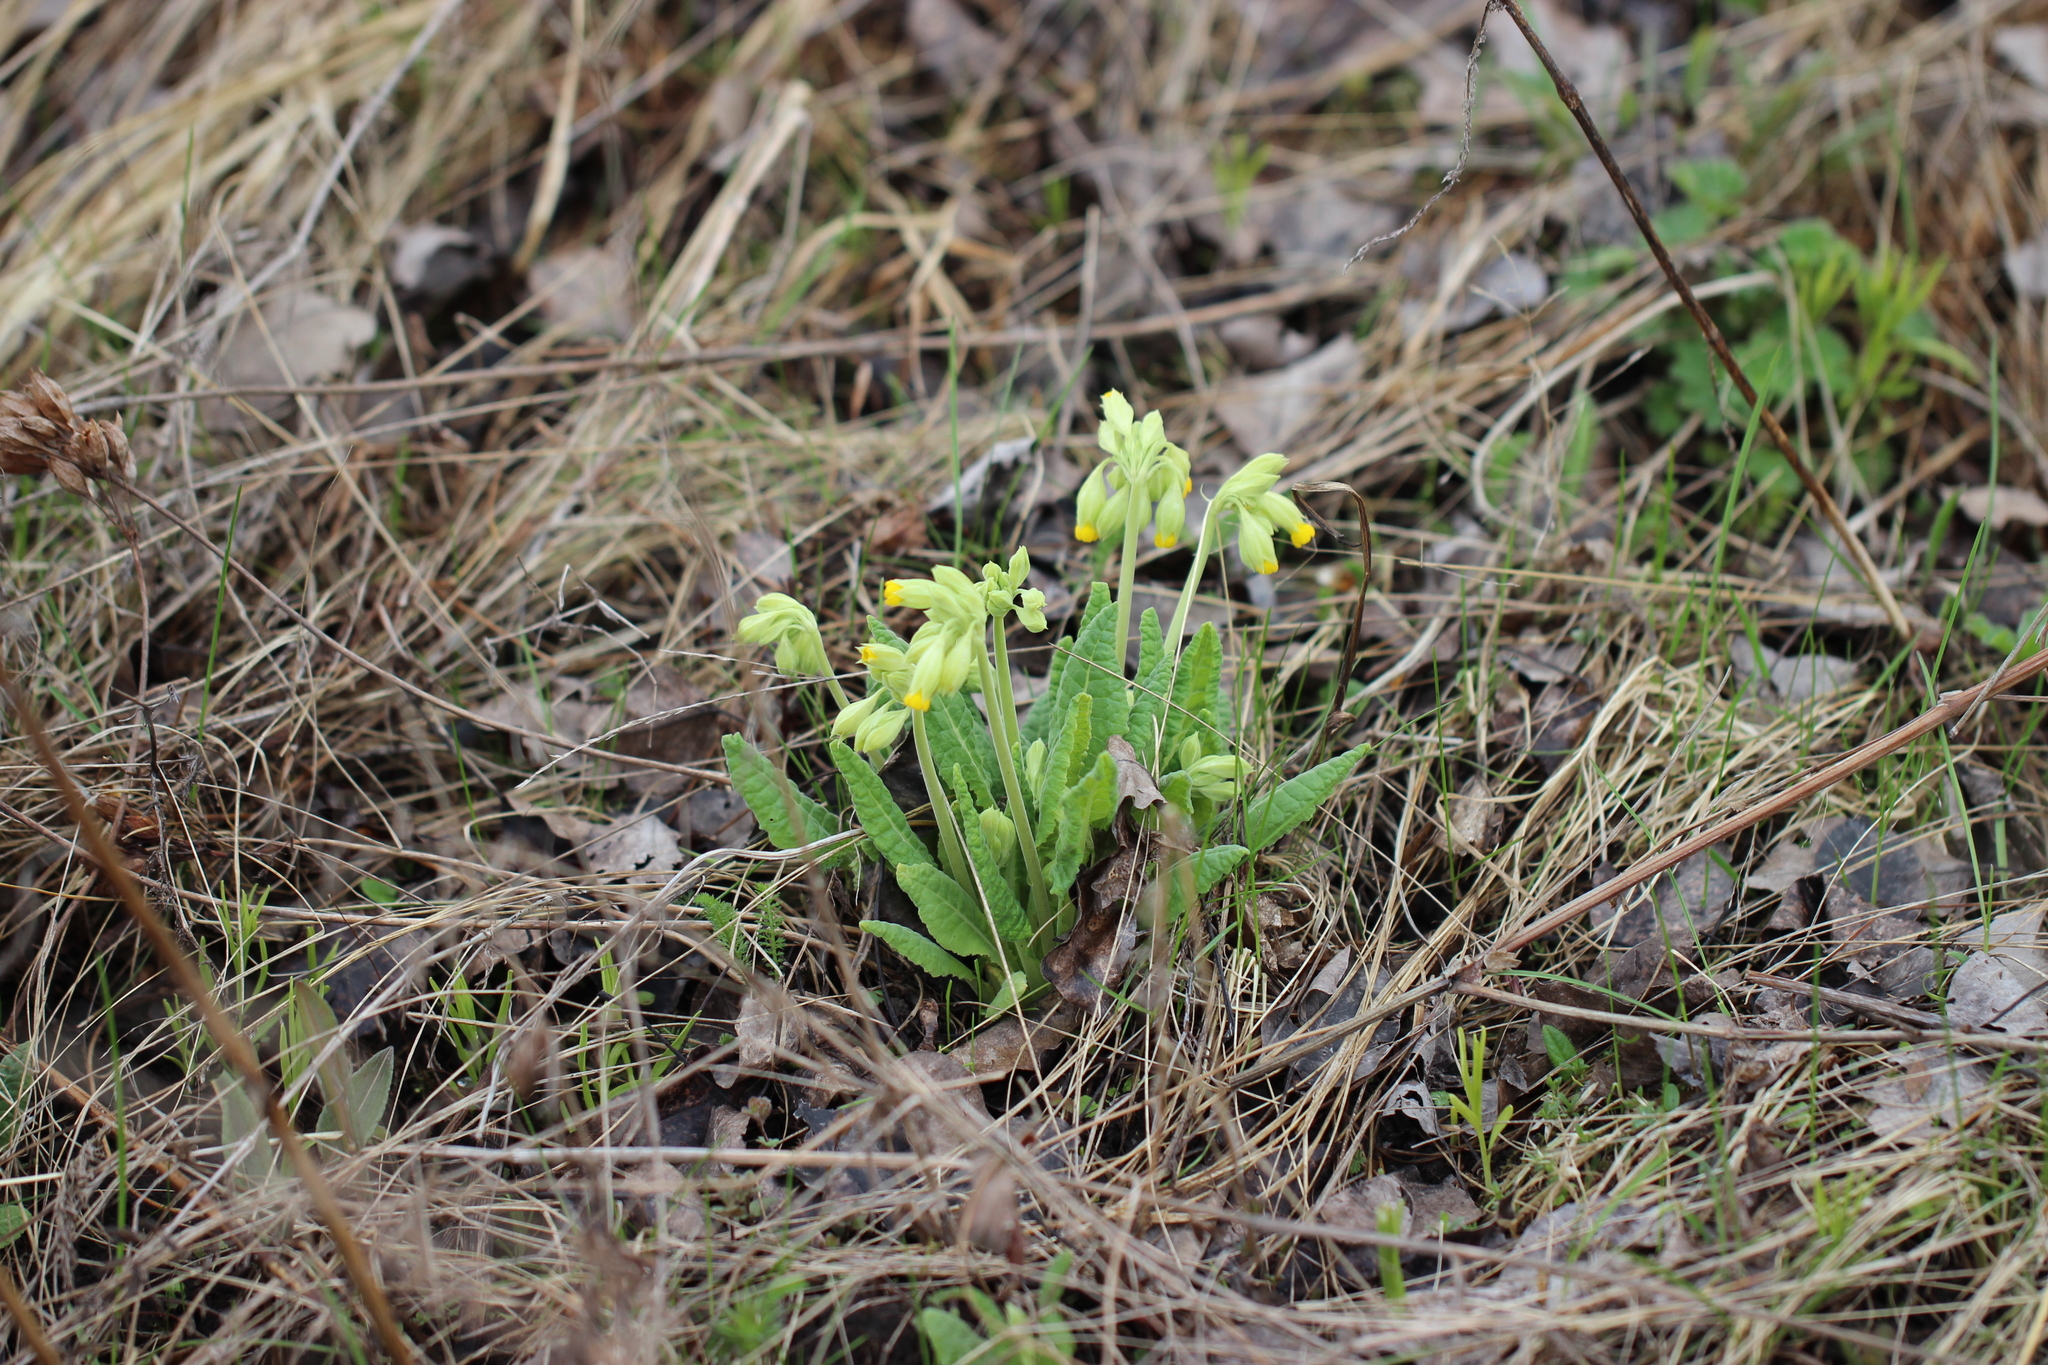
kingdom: Plantae
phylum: Tracheophyta
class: Magnoliopsida
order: Ericales
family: Primulaceae
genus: Primula
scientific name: Primula veris
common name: Cowslip
